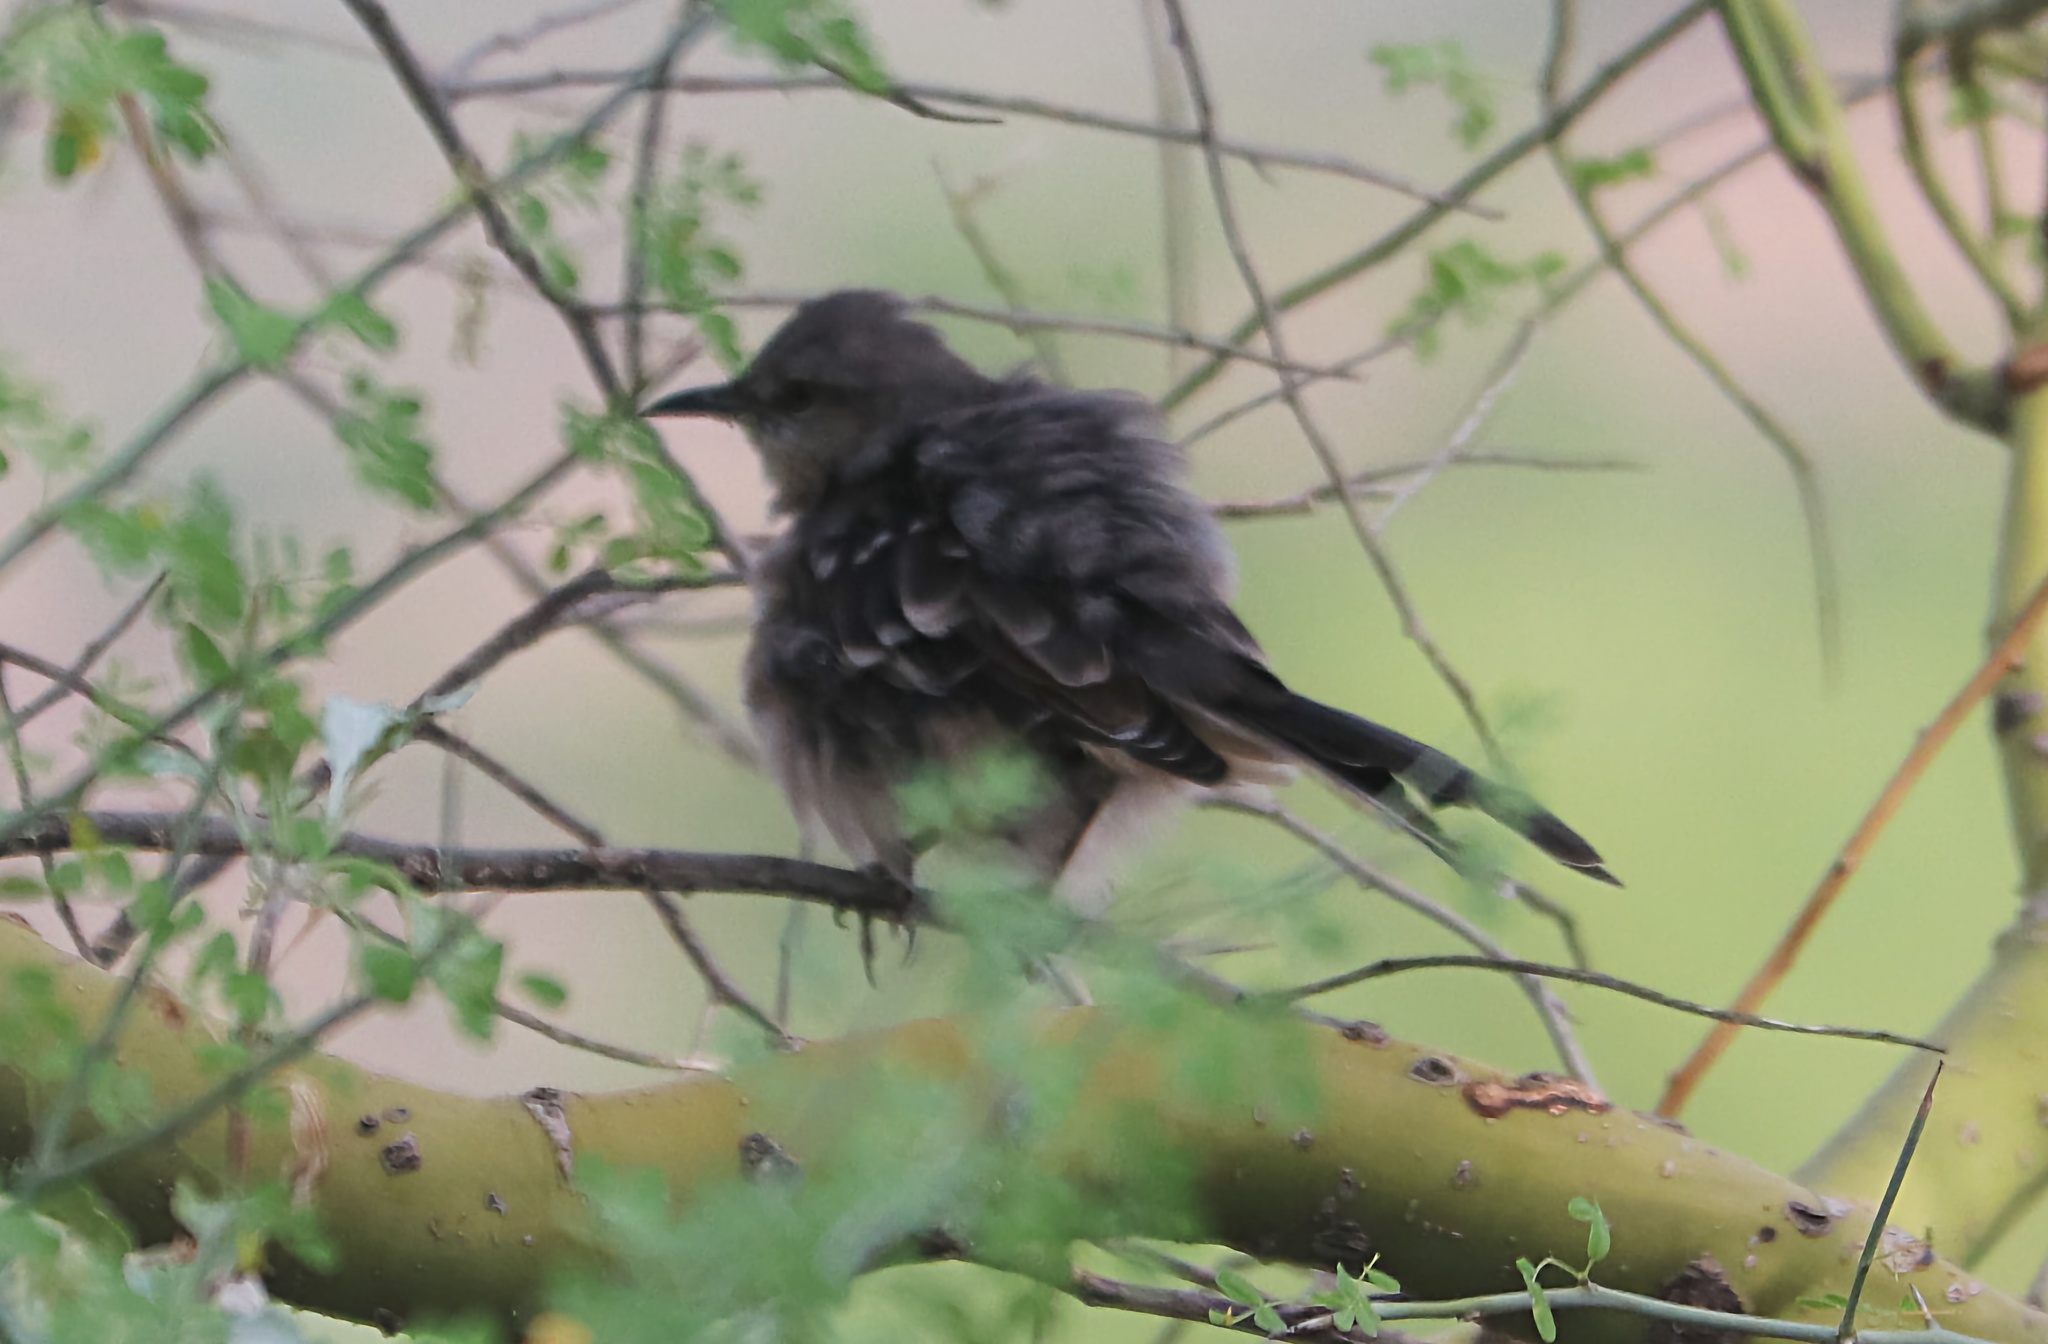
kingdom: Animalia
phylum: Chordata
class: Aves
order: Passeriformes
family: Mimidae
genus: Mimus
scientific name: Mimus polyglottos
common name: Northern mockingbird
